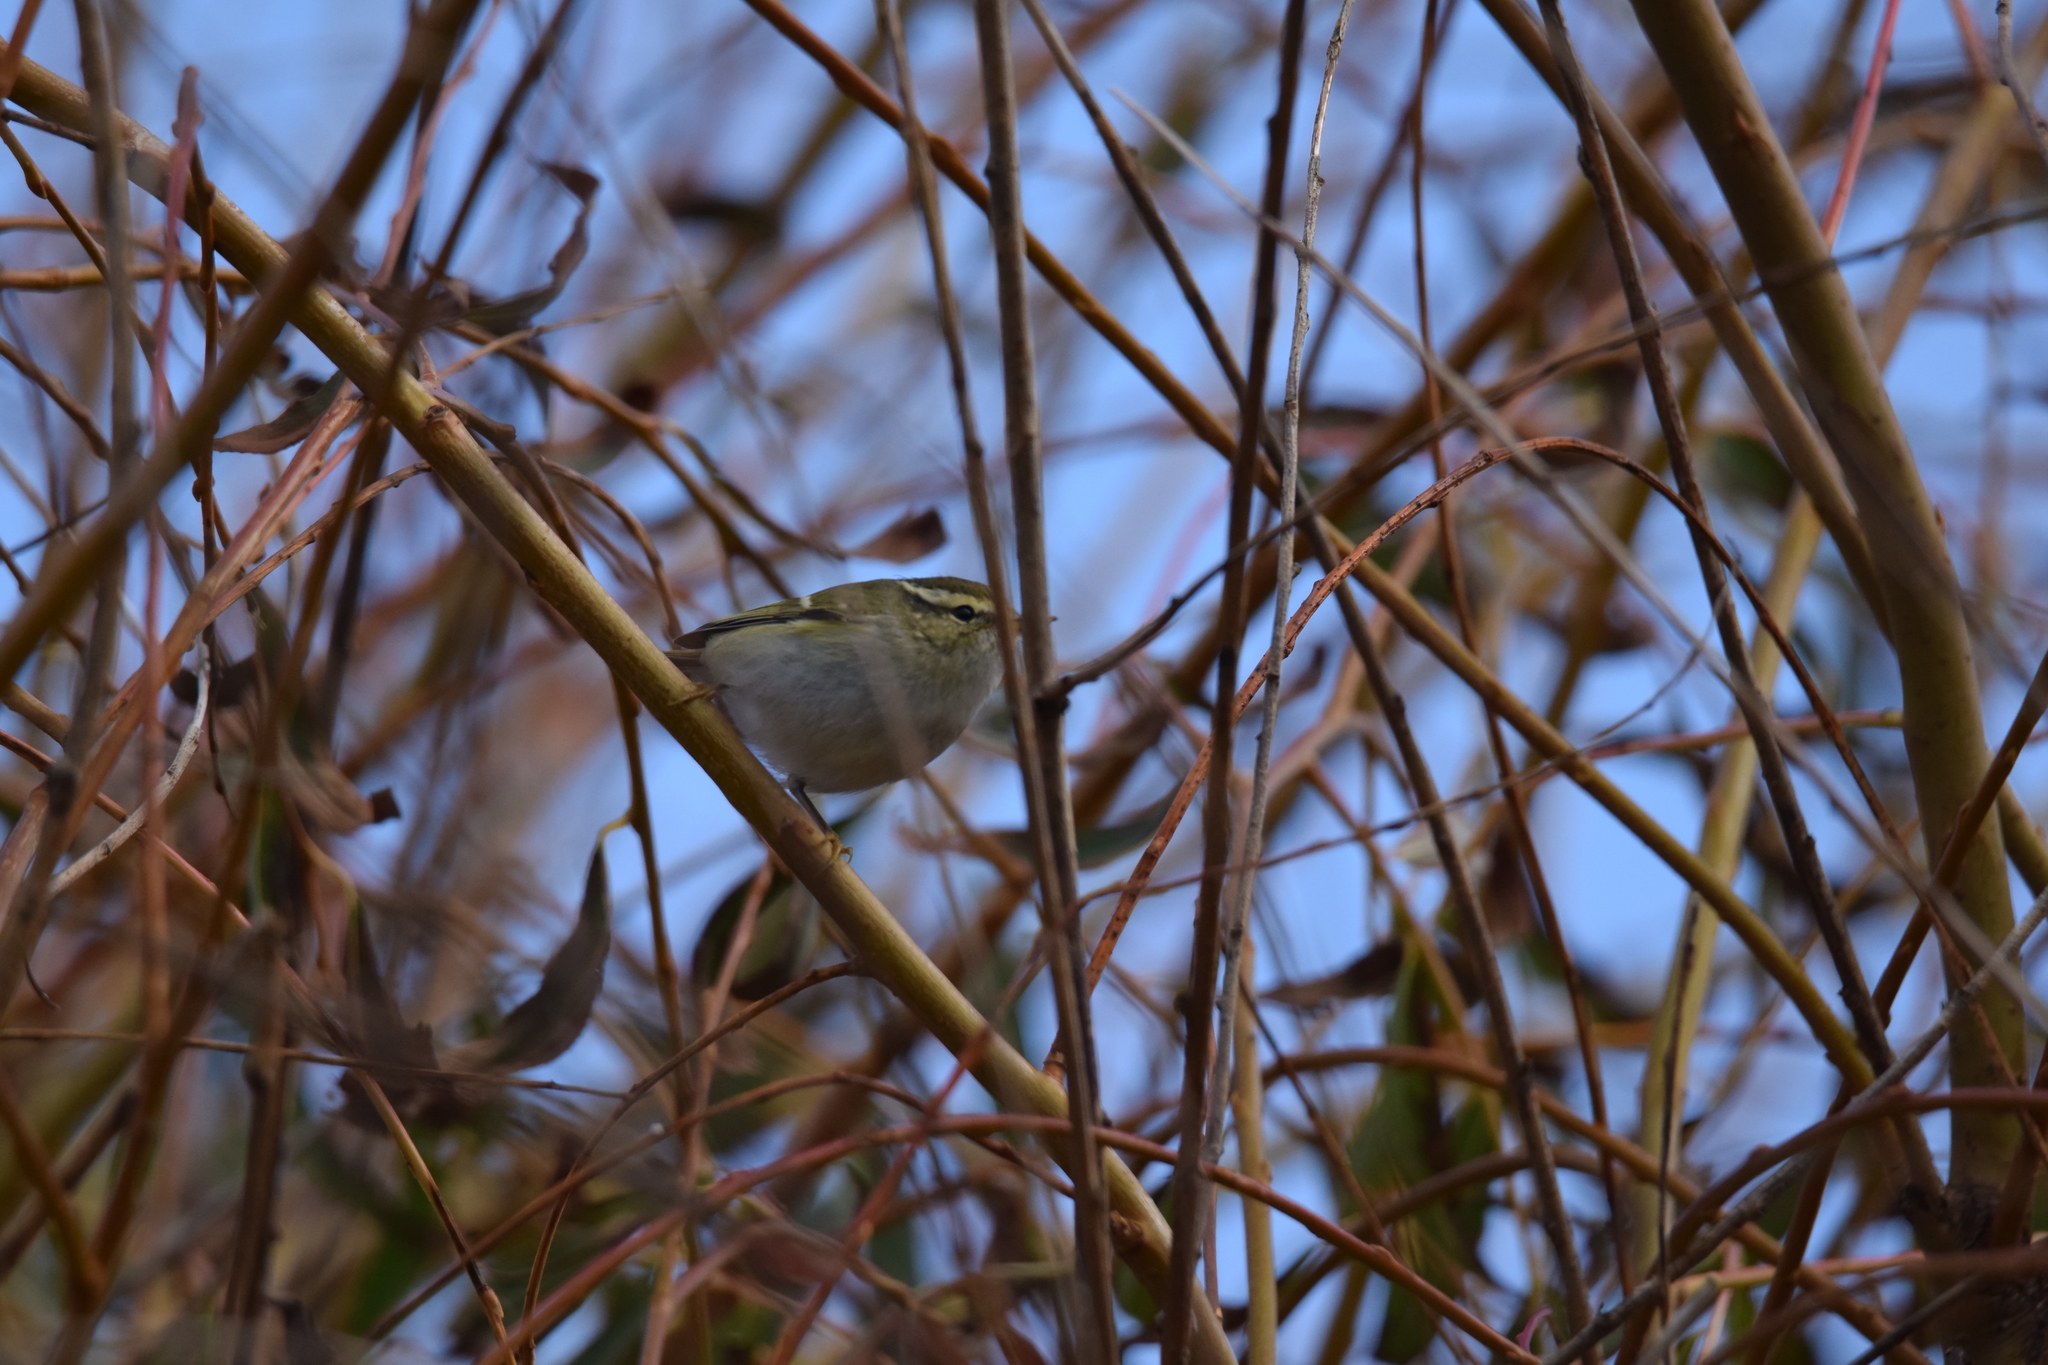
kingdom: Animalia
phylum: Chordata
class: Aves
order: Passeriformes
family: Phylloscopidae
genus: Phylloscopus
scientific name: Phylloscopus inornatus
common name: Yellow-browed warbler
